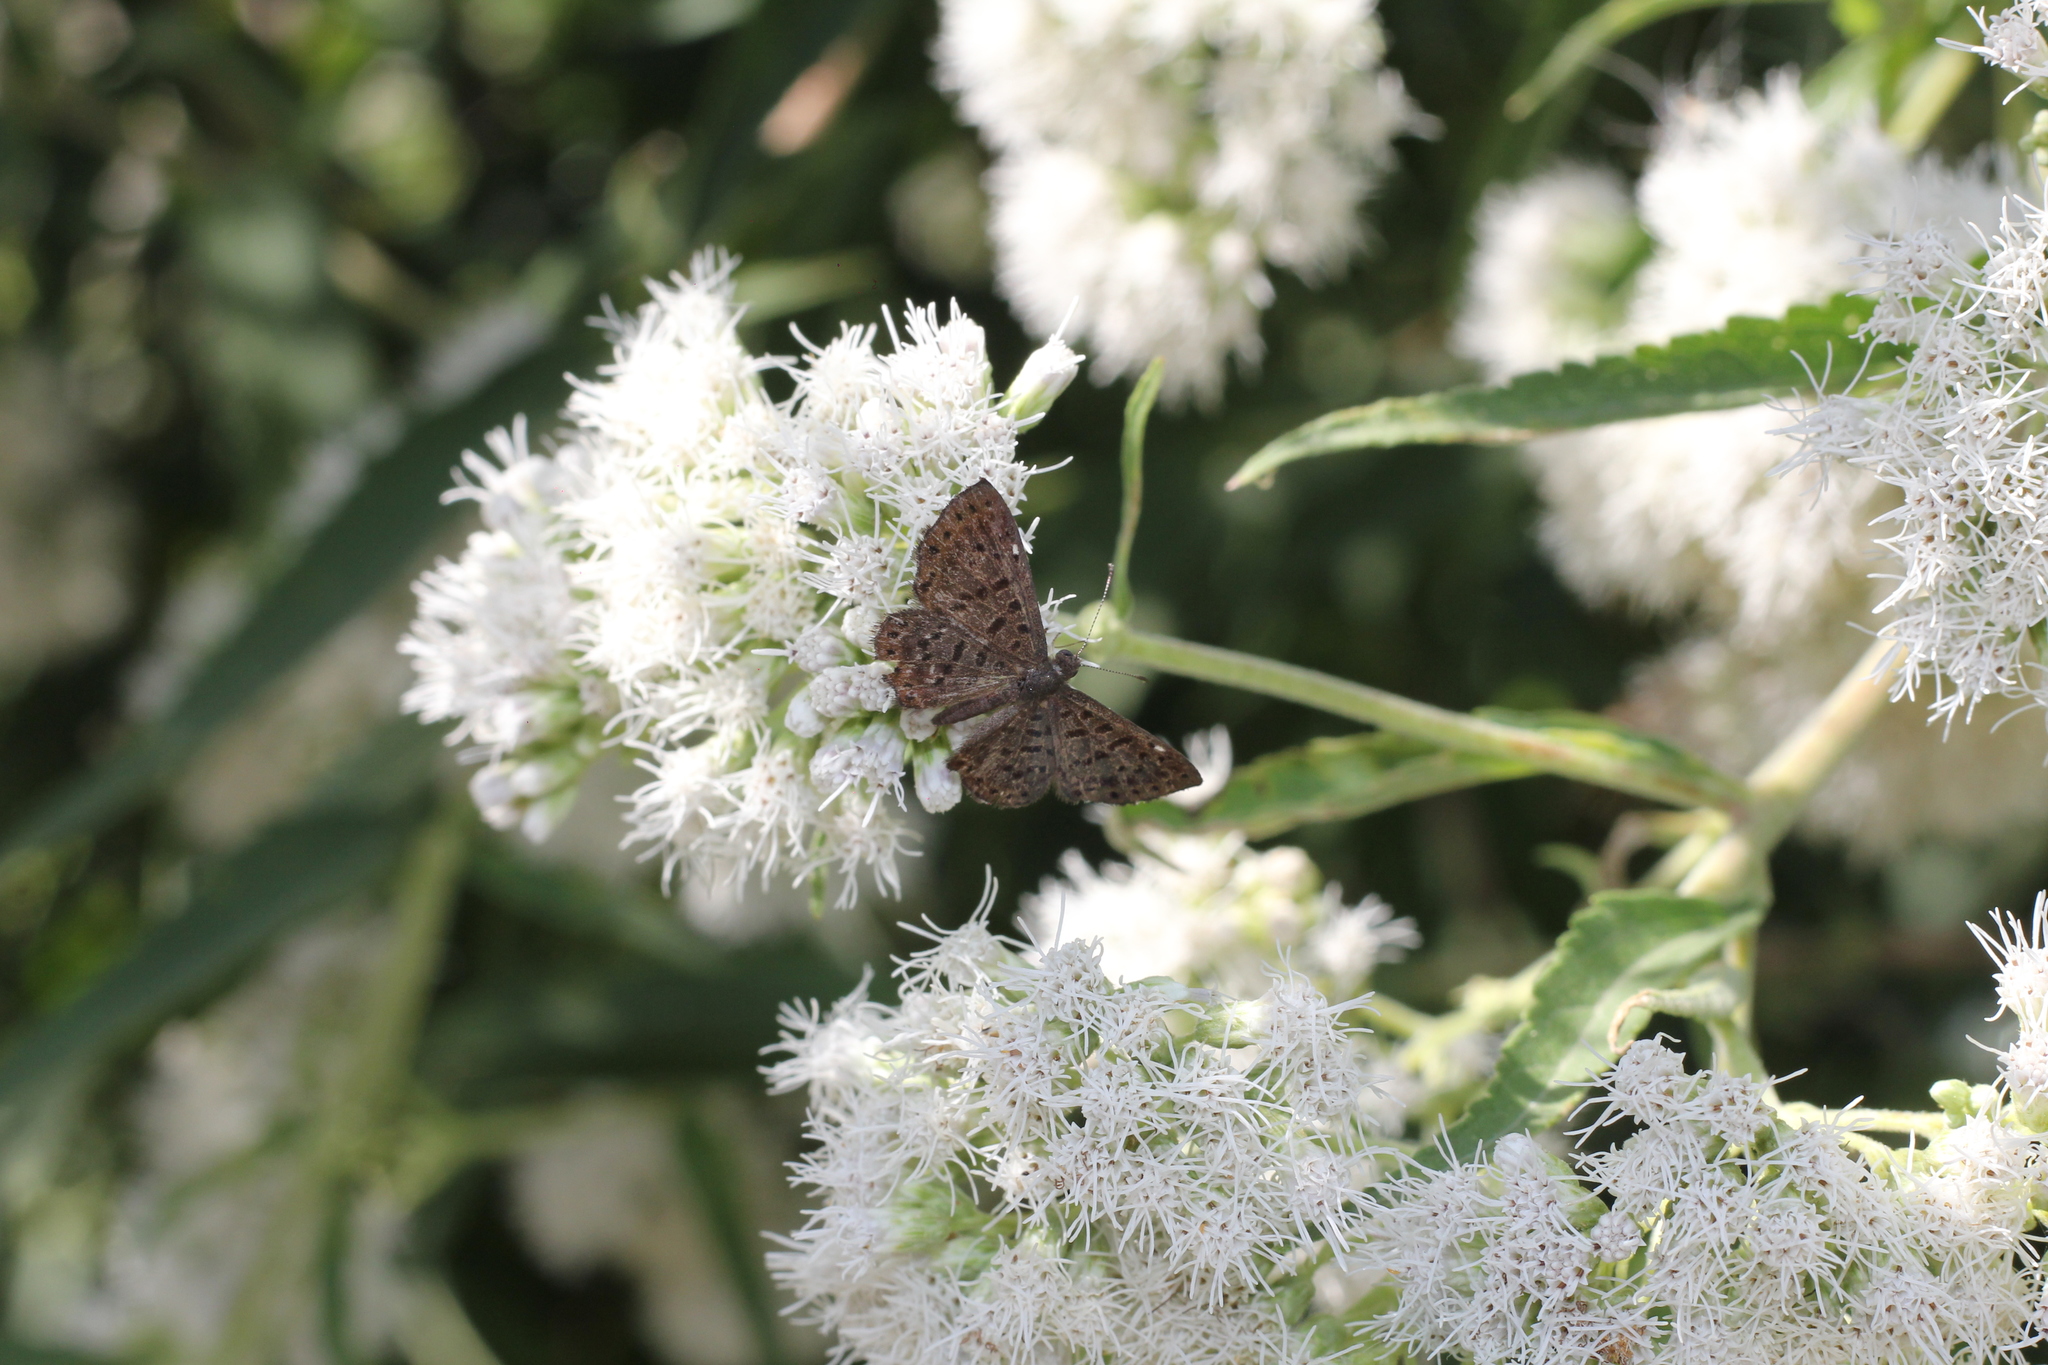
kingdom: Animalia
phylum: Arthropoda
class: Insecta
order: Lepidoptera
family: Riodinidae
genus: Teenie
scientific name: Teenie tinea
